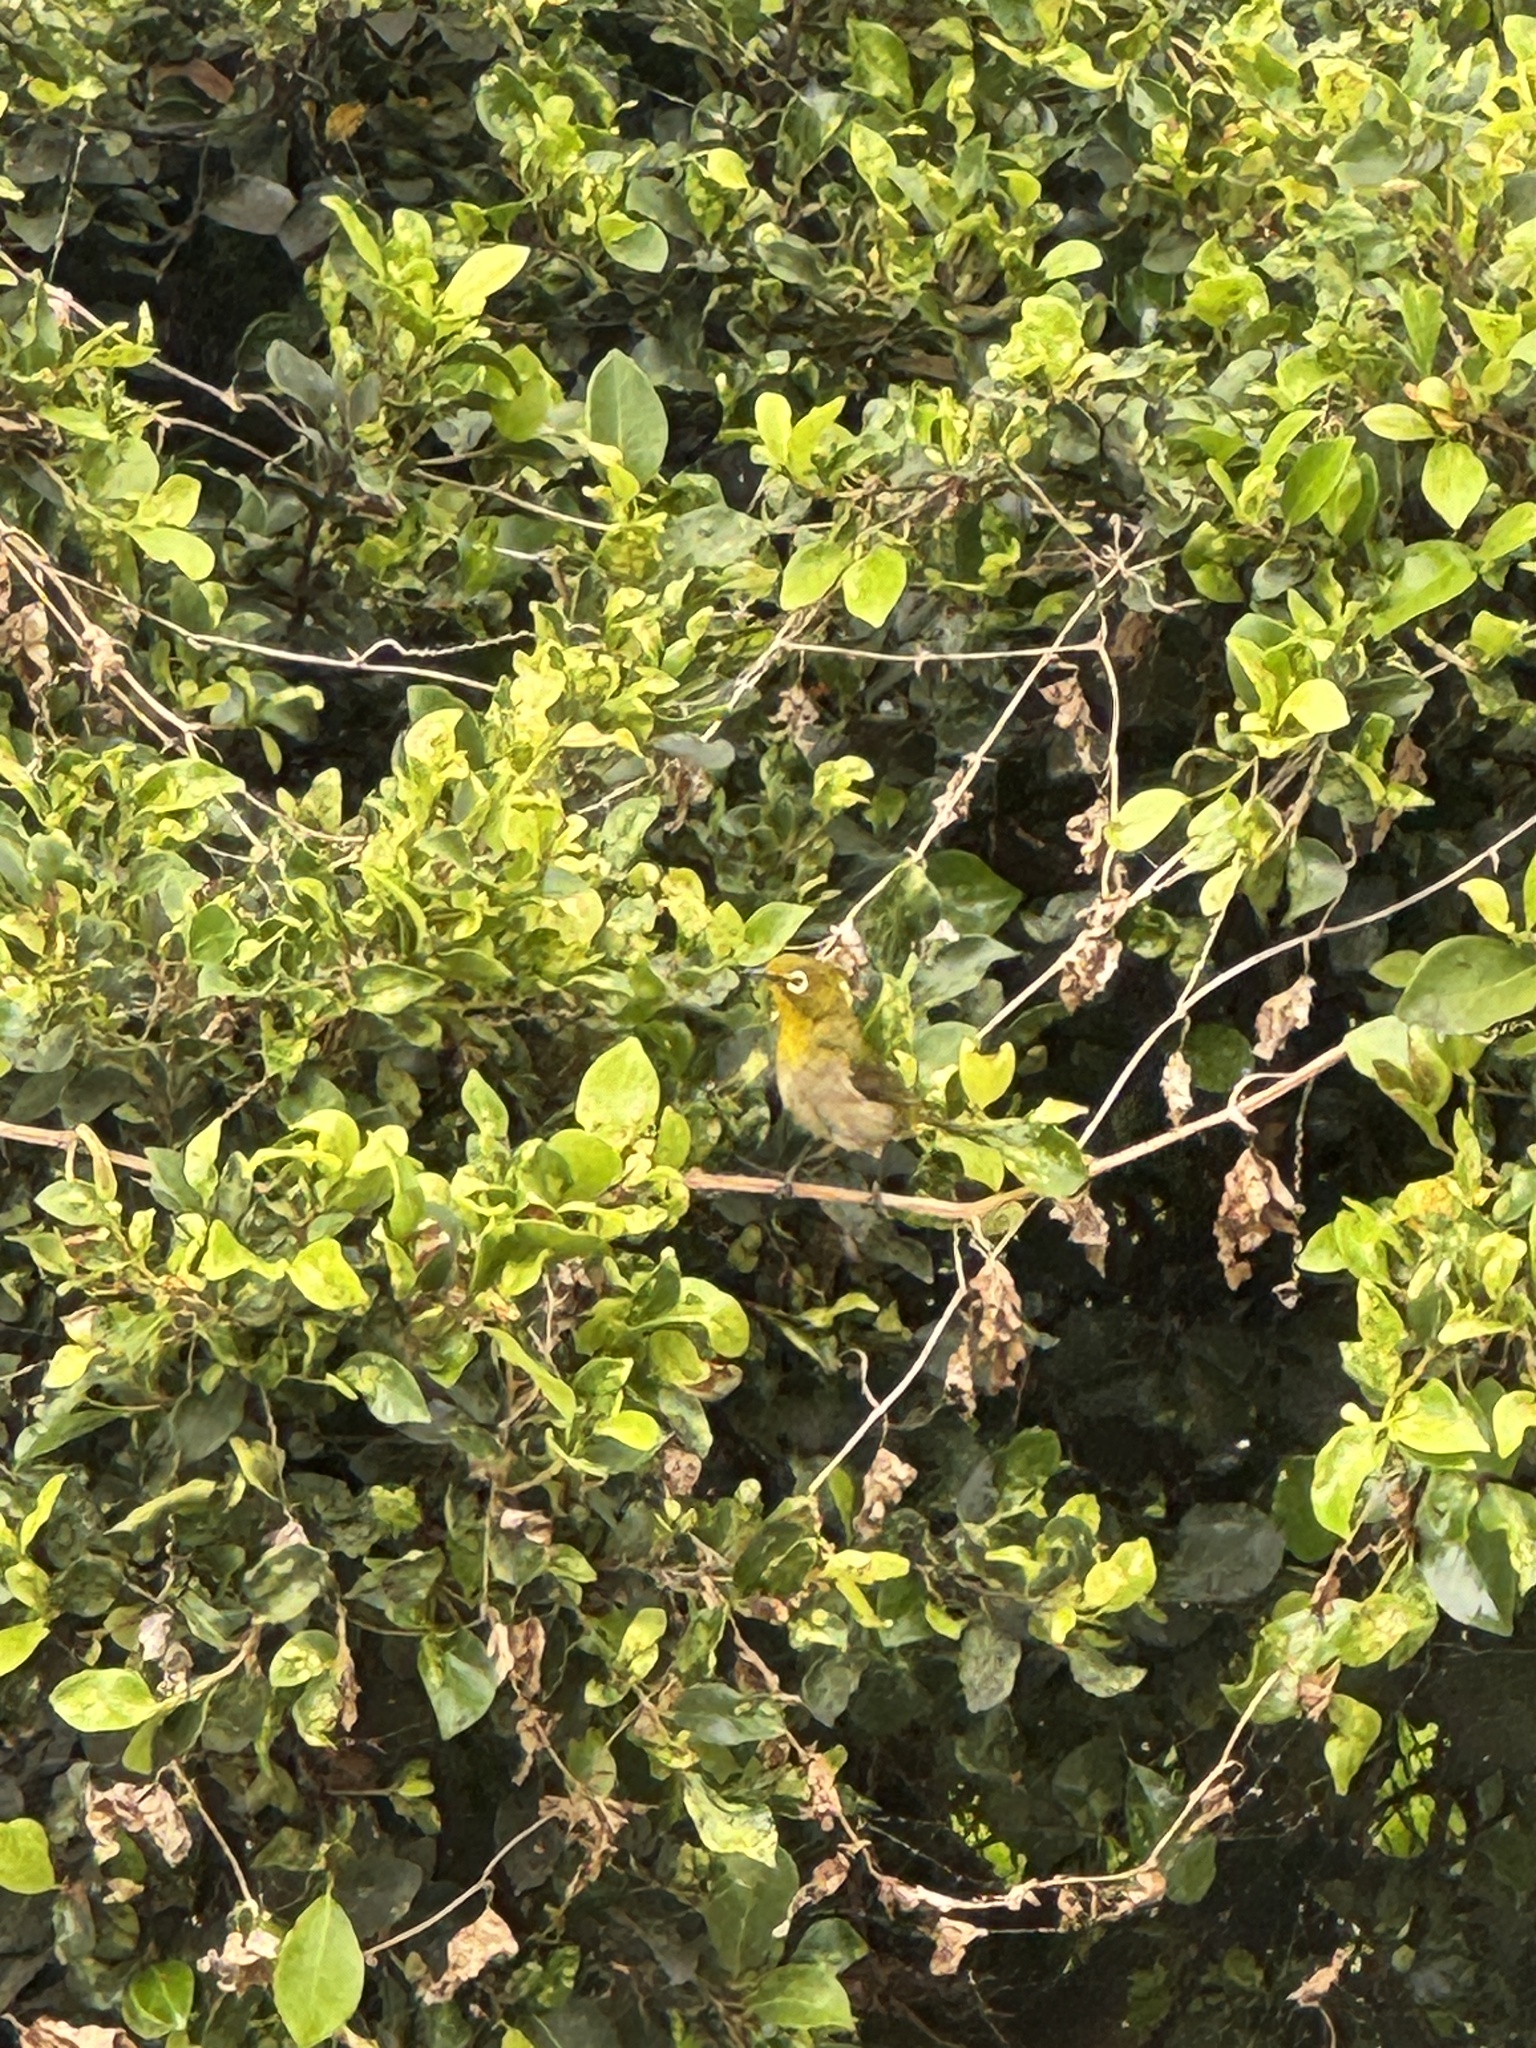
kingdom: Animalia
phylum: Chordata
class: Aves
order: Passeriformes
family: Zosteropidae
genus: Zosterops
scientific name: Zosterops japonicus
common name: Japanese white-eye
